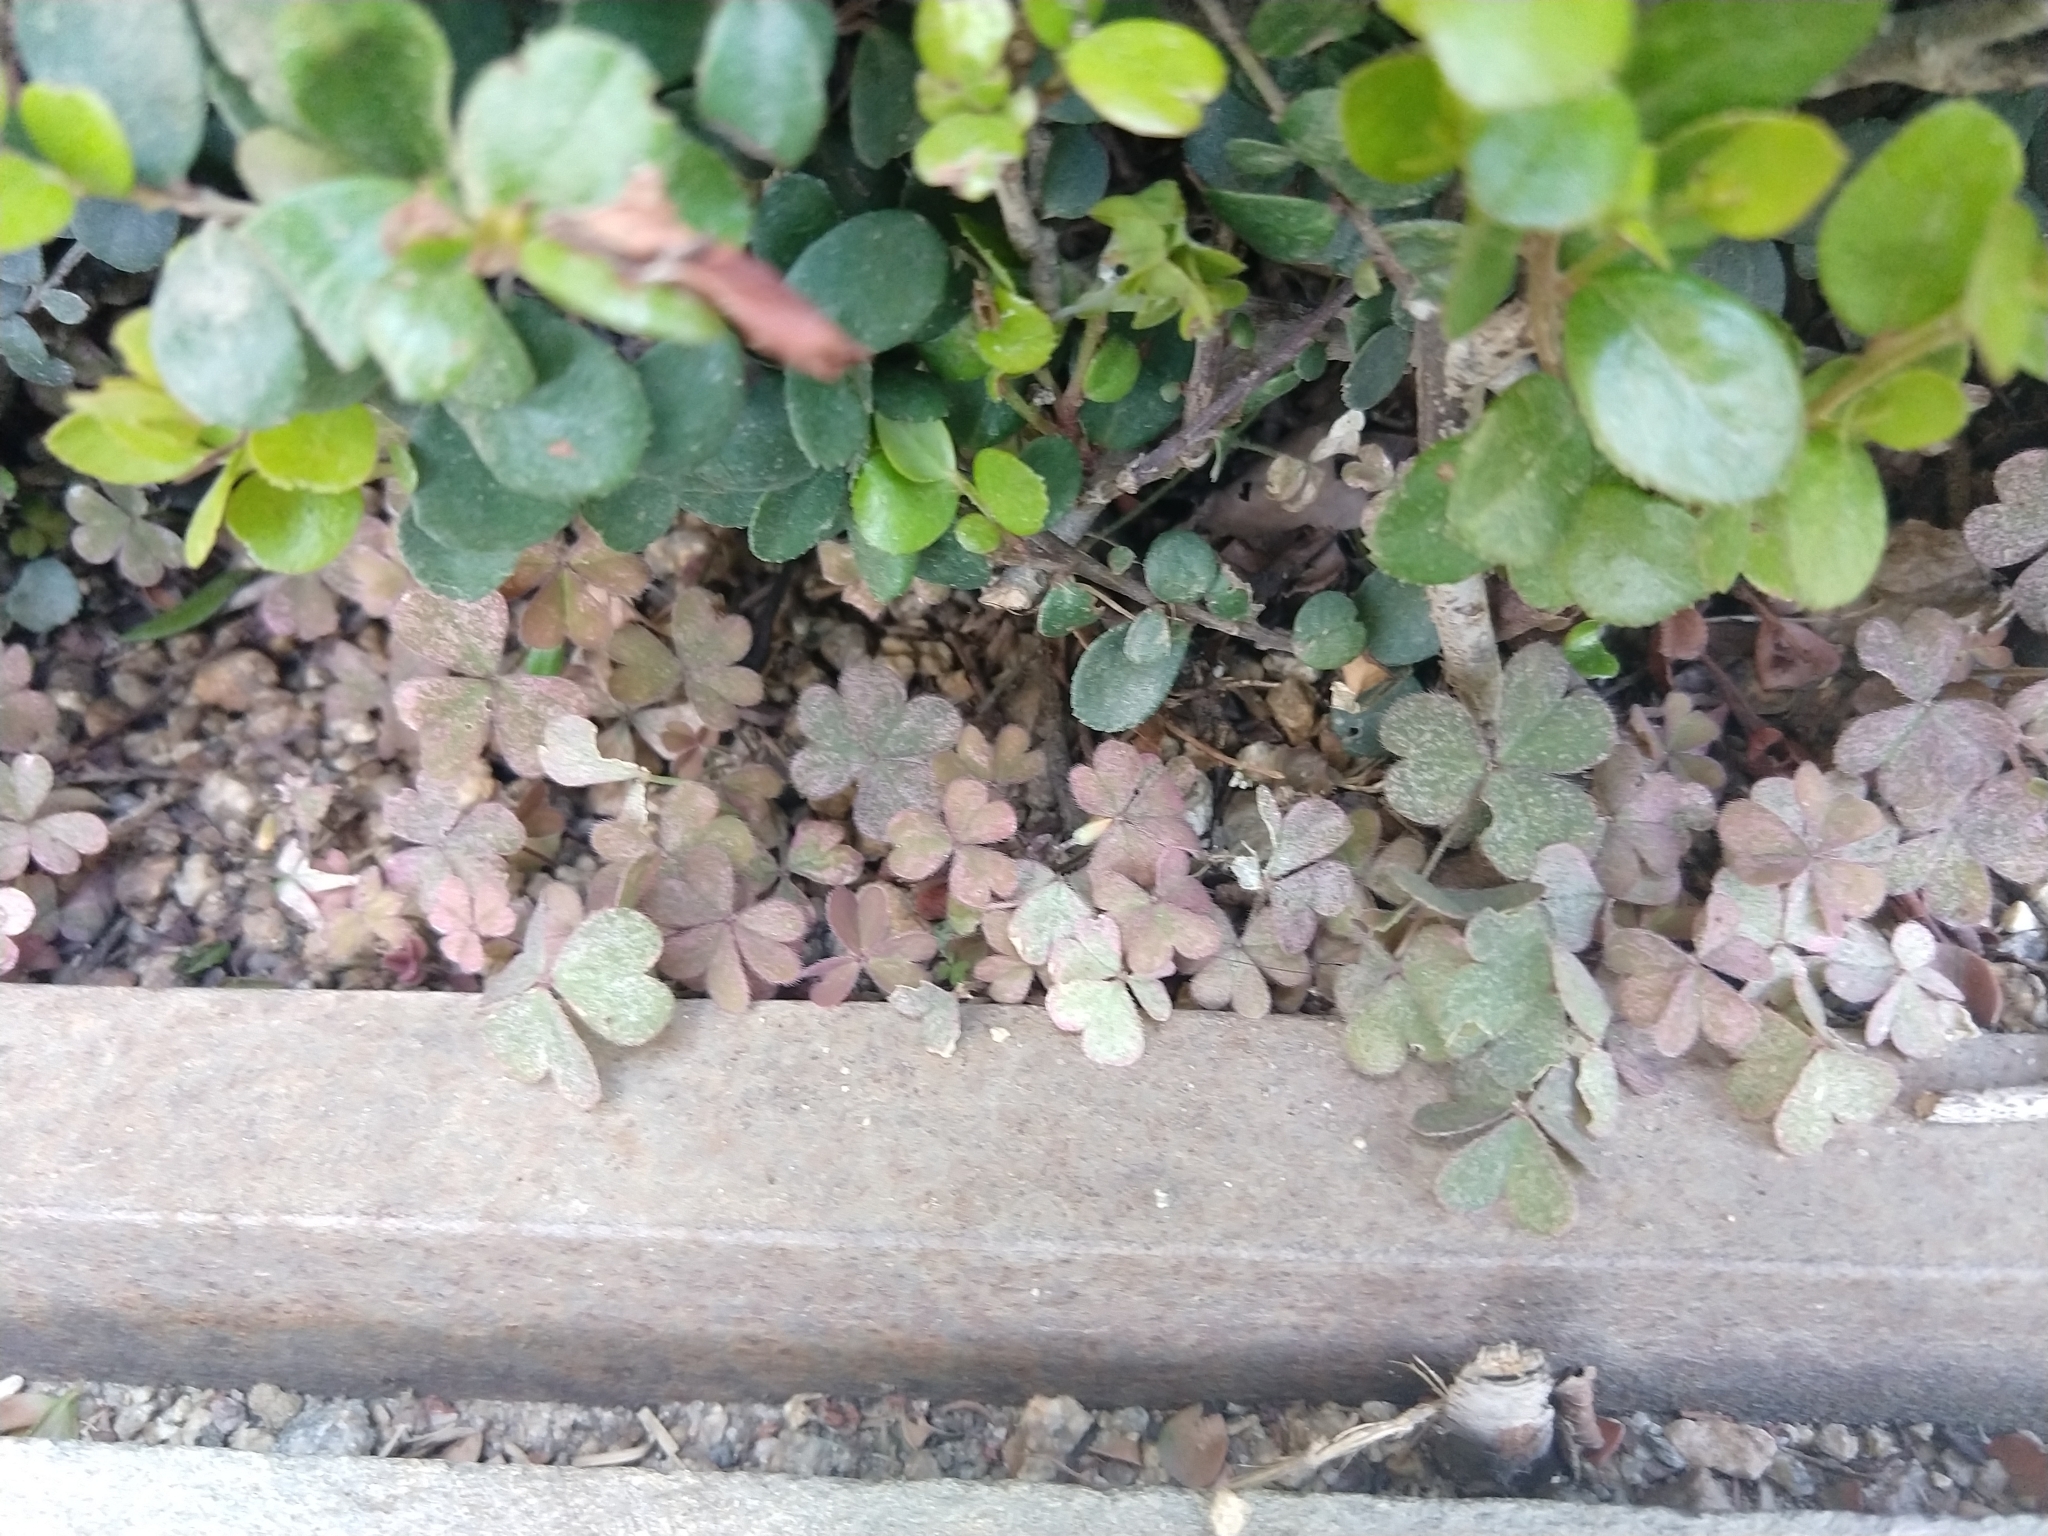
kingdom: Plantae
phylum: Tracheophyta
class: Magnoliopsida
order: Oxalidales
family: Oxalidaceae
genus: Oxalis
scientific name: Oxalis corniculata
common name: Procumbent yellow-sorrel
